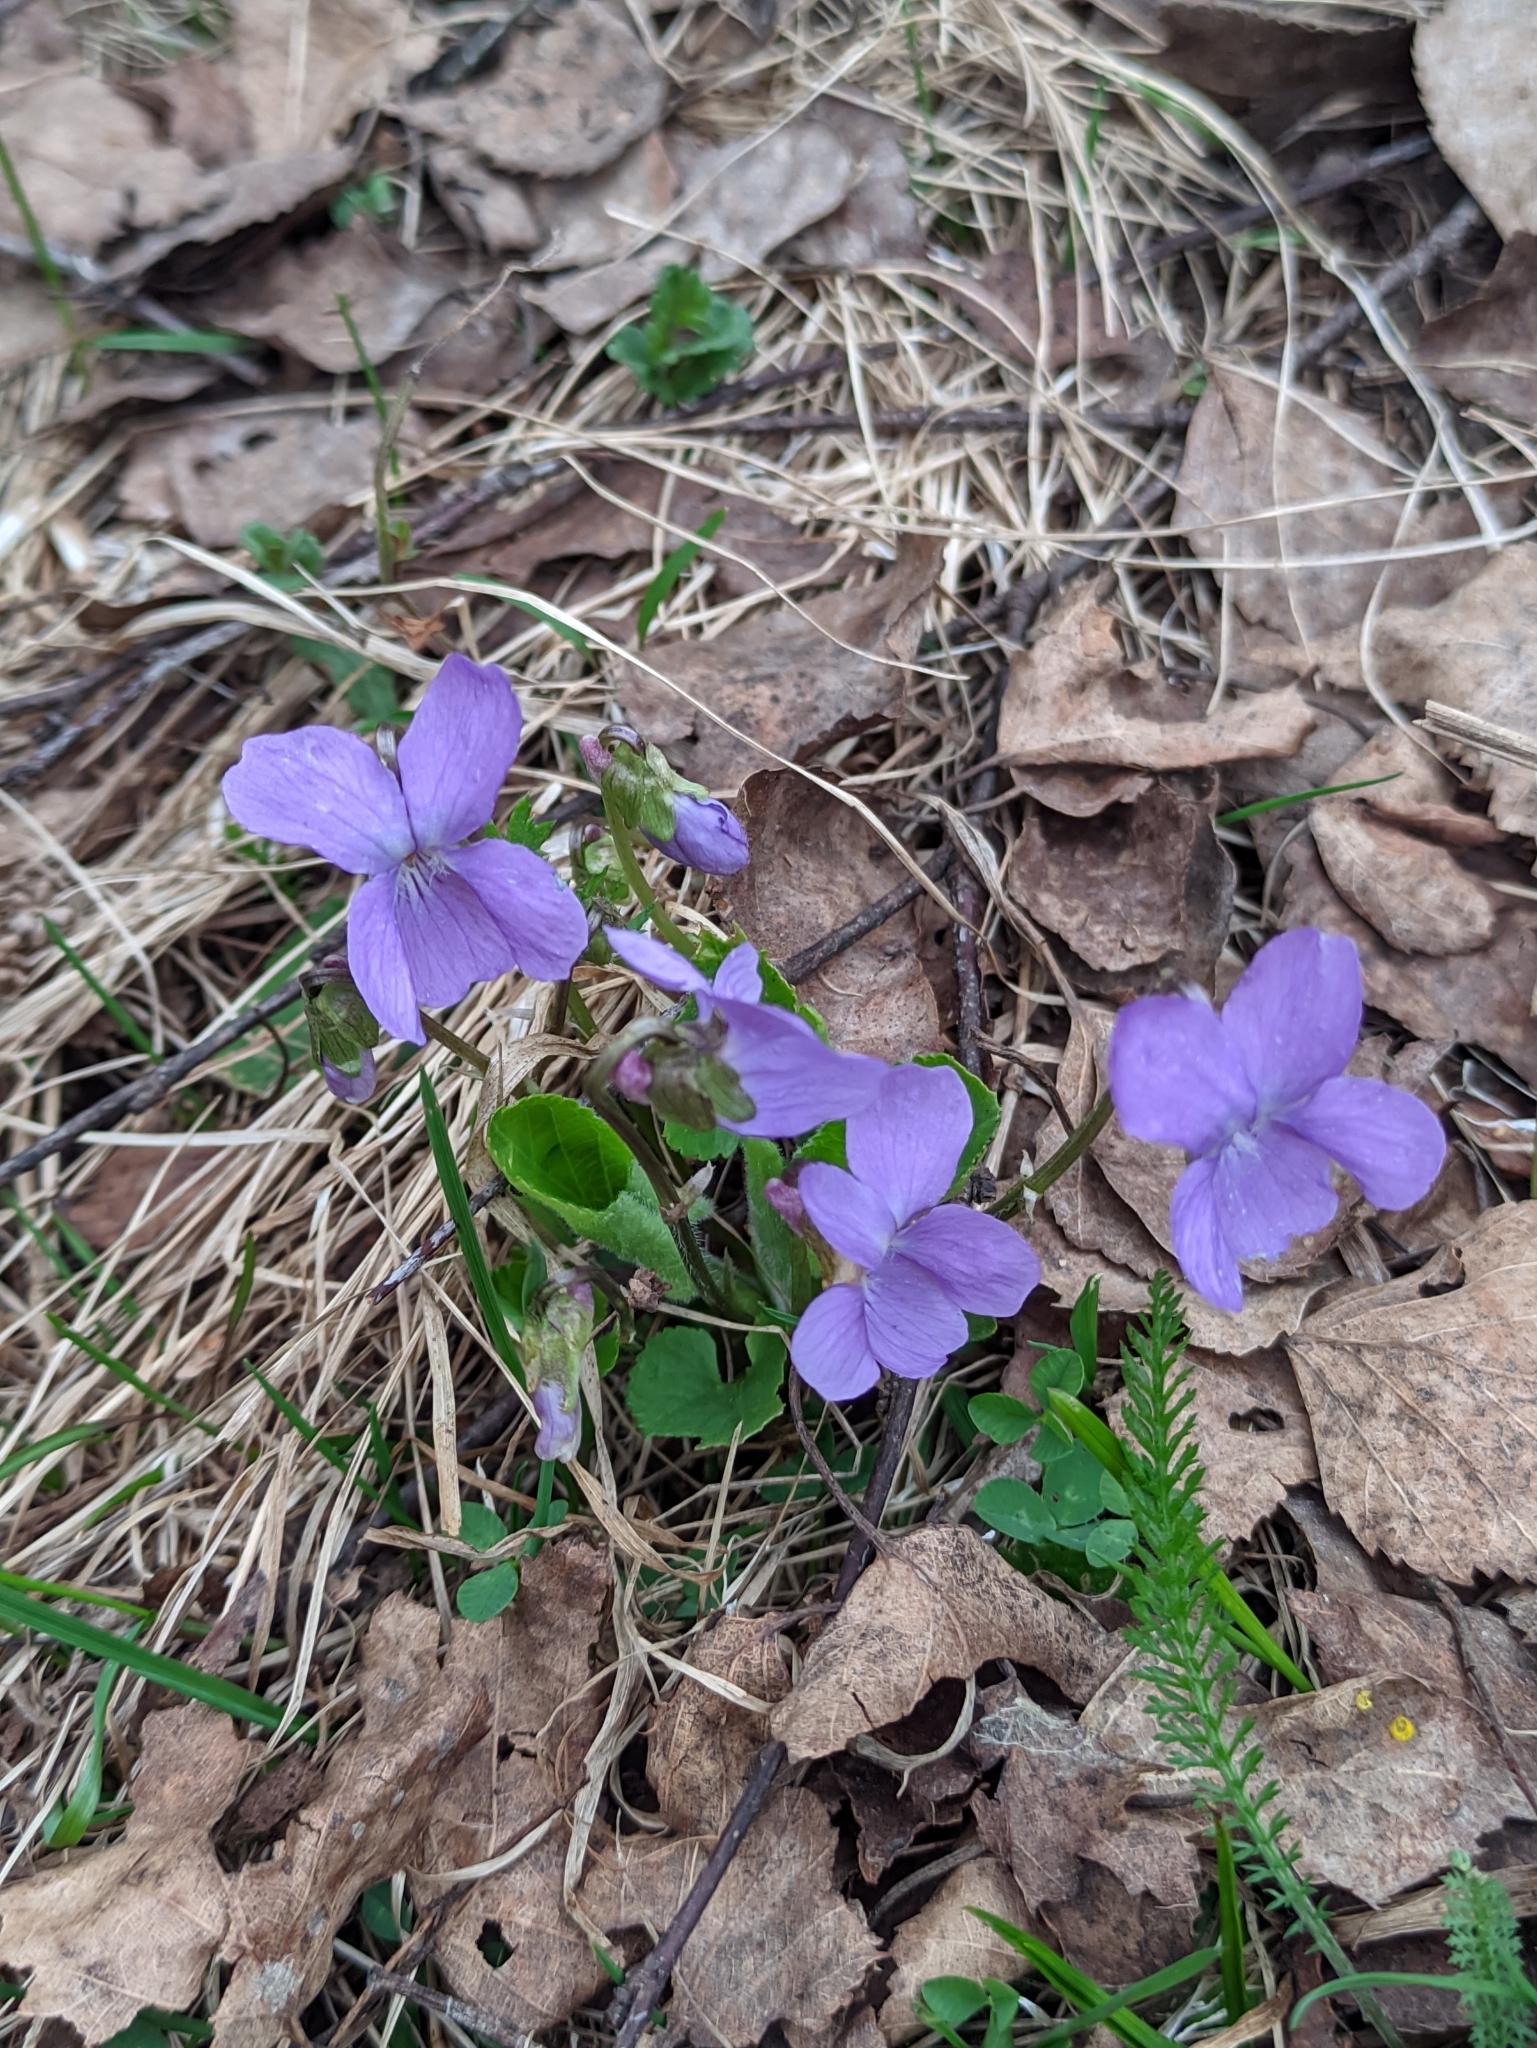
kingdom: Plantae
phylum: Tracheophyta
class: Magnoliopsida
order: Malpighiales
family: Violaceae
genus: Viola
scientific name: Viola hirta
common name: Hairy violet
